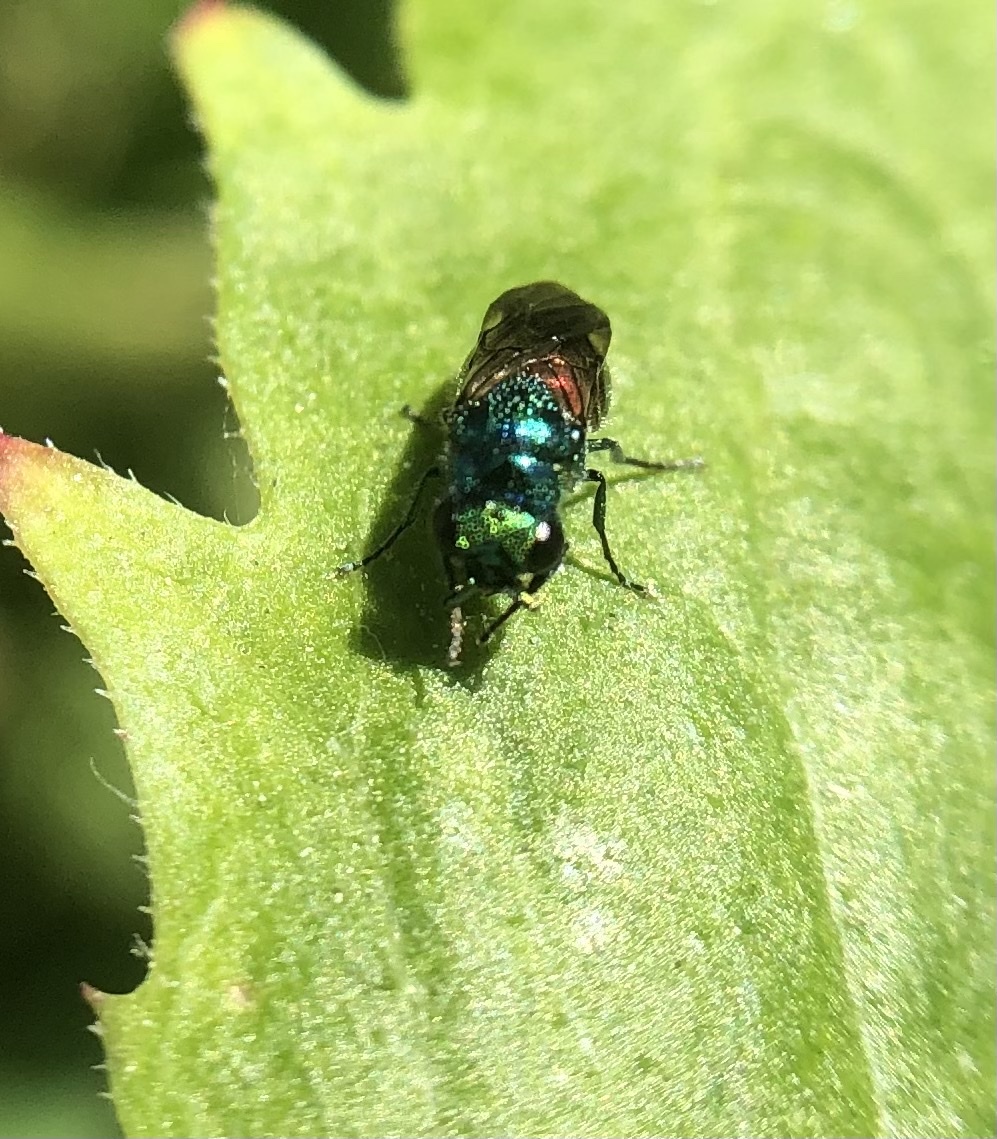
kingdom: Animalia
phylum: Arthropoda
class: Insecta
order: Hymenoptera
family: Chrysididae
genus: Pseudomalus
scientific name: Pseudomalus auratus
